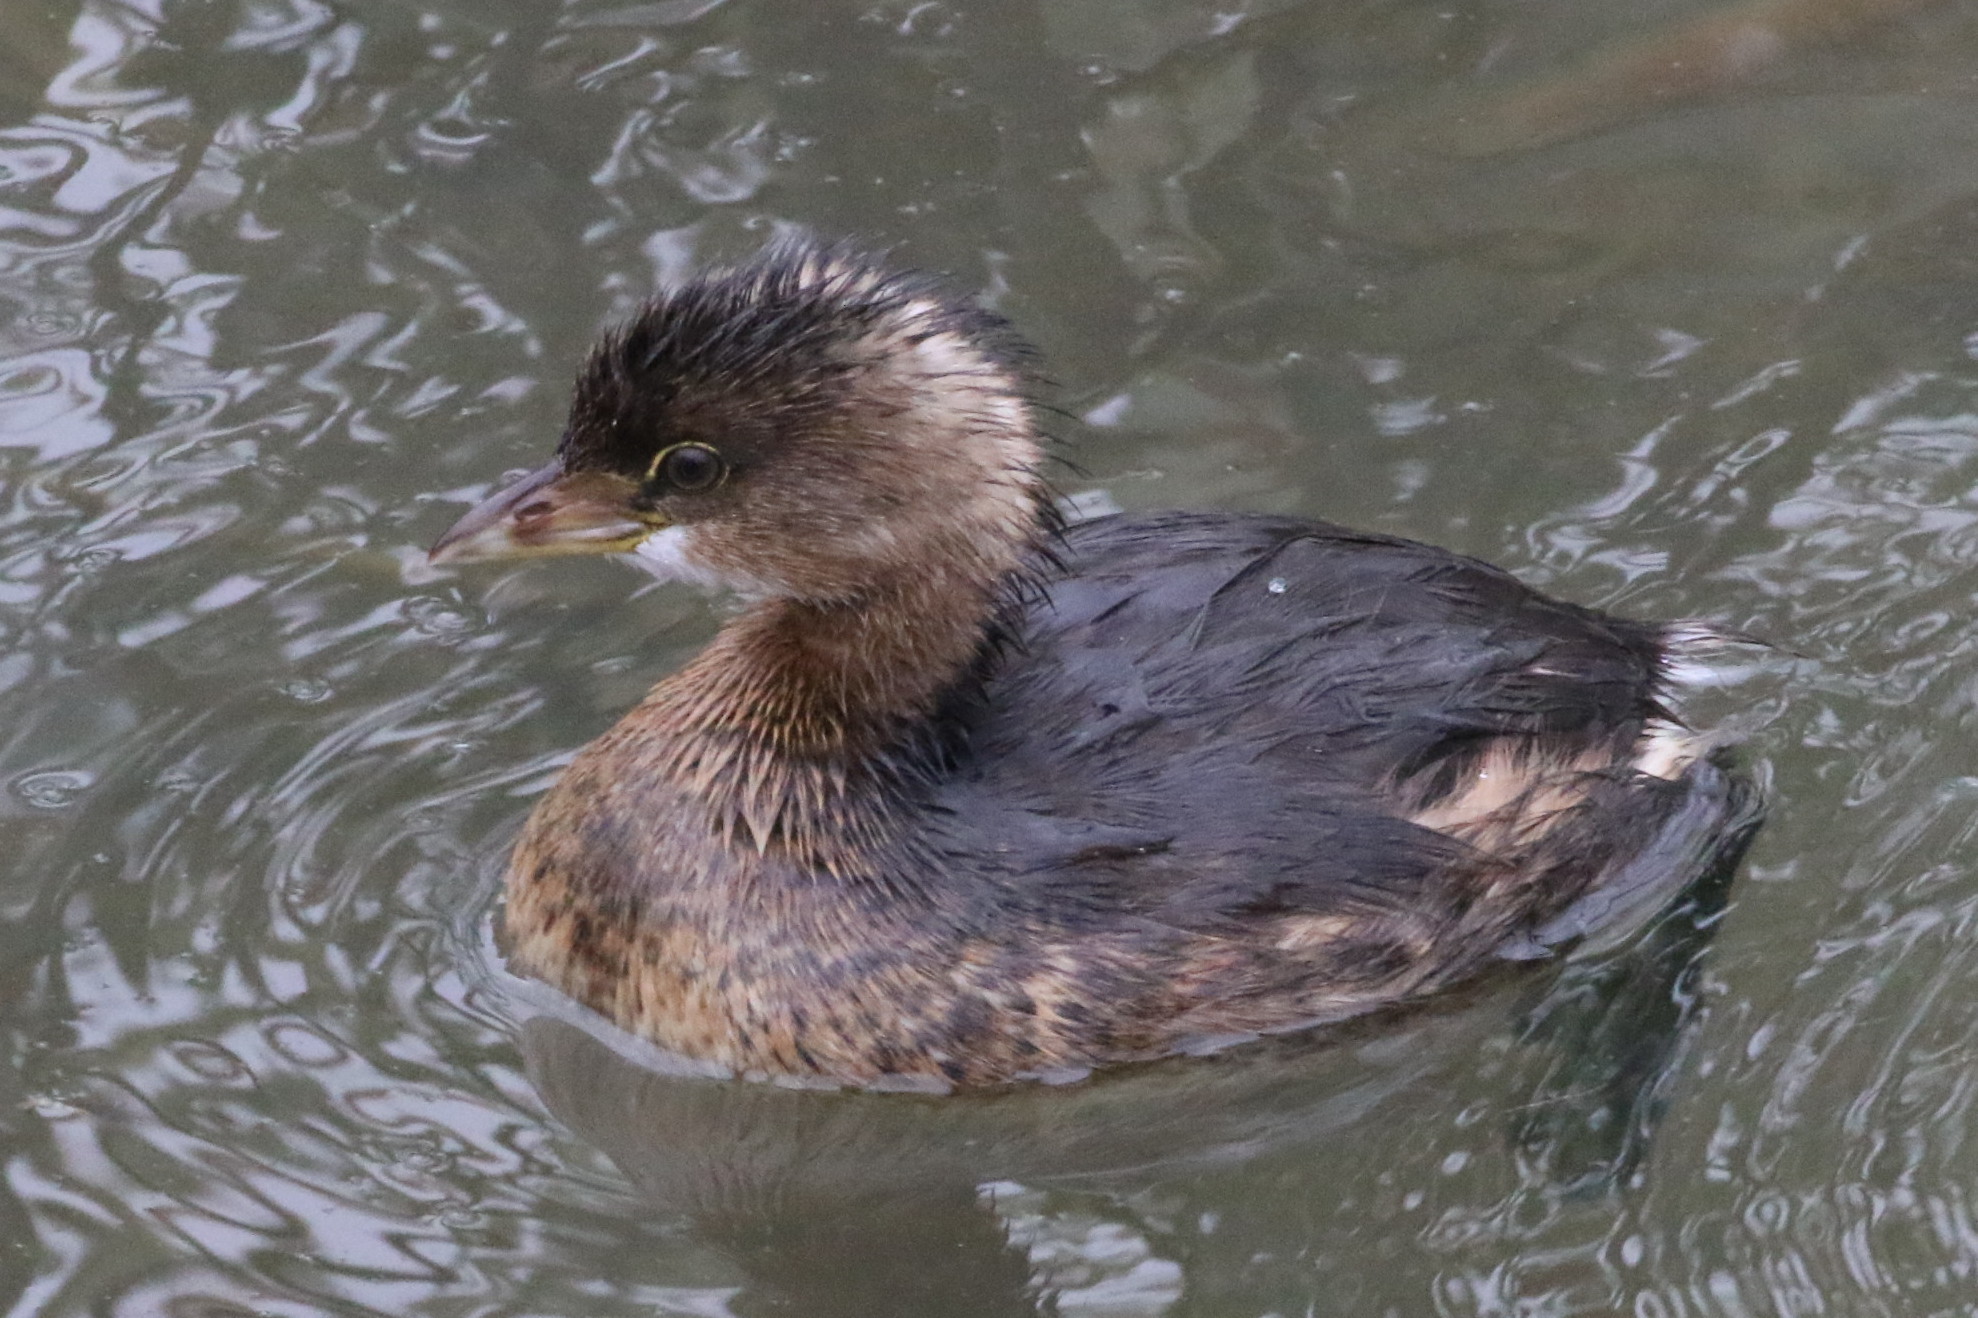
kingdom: Animalia
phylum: Chordata
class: Aves
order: Podicipediformes
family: Podicipedidae
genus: Podilymbus
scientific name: Podilymbus podiceps
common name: Pied-billed grebe
